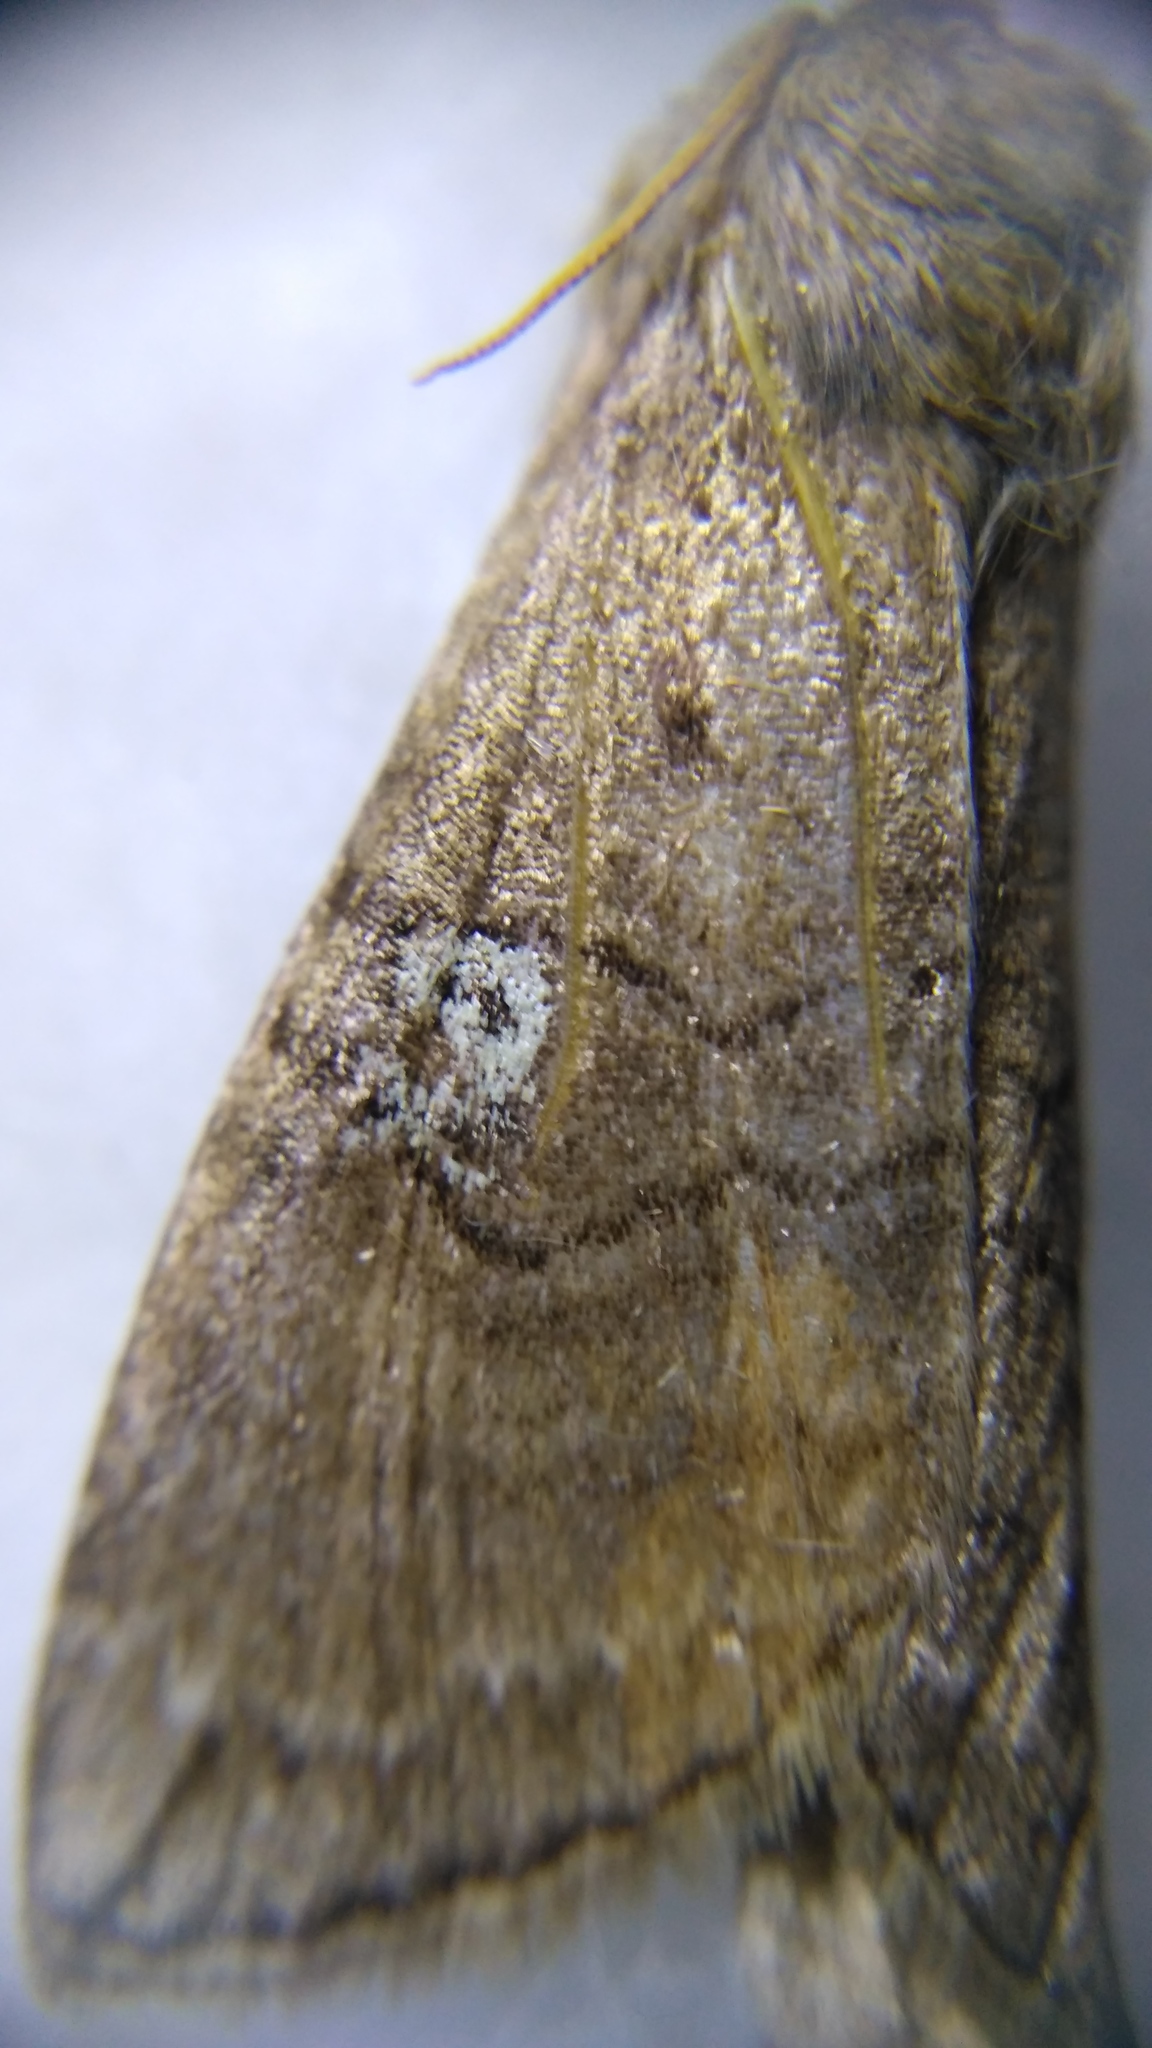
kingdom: Animalia
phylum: Arthropoda
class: Insecta
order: Lepidoptera
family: Drepanidae
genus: Tethea
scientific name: Tethea ocularis
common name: Figure of eighty
